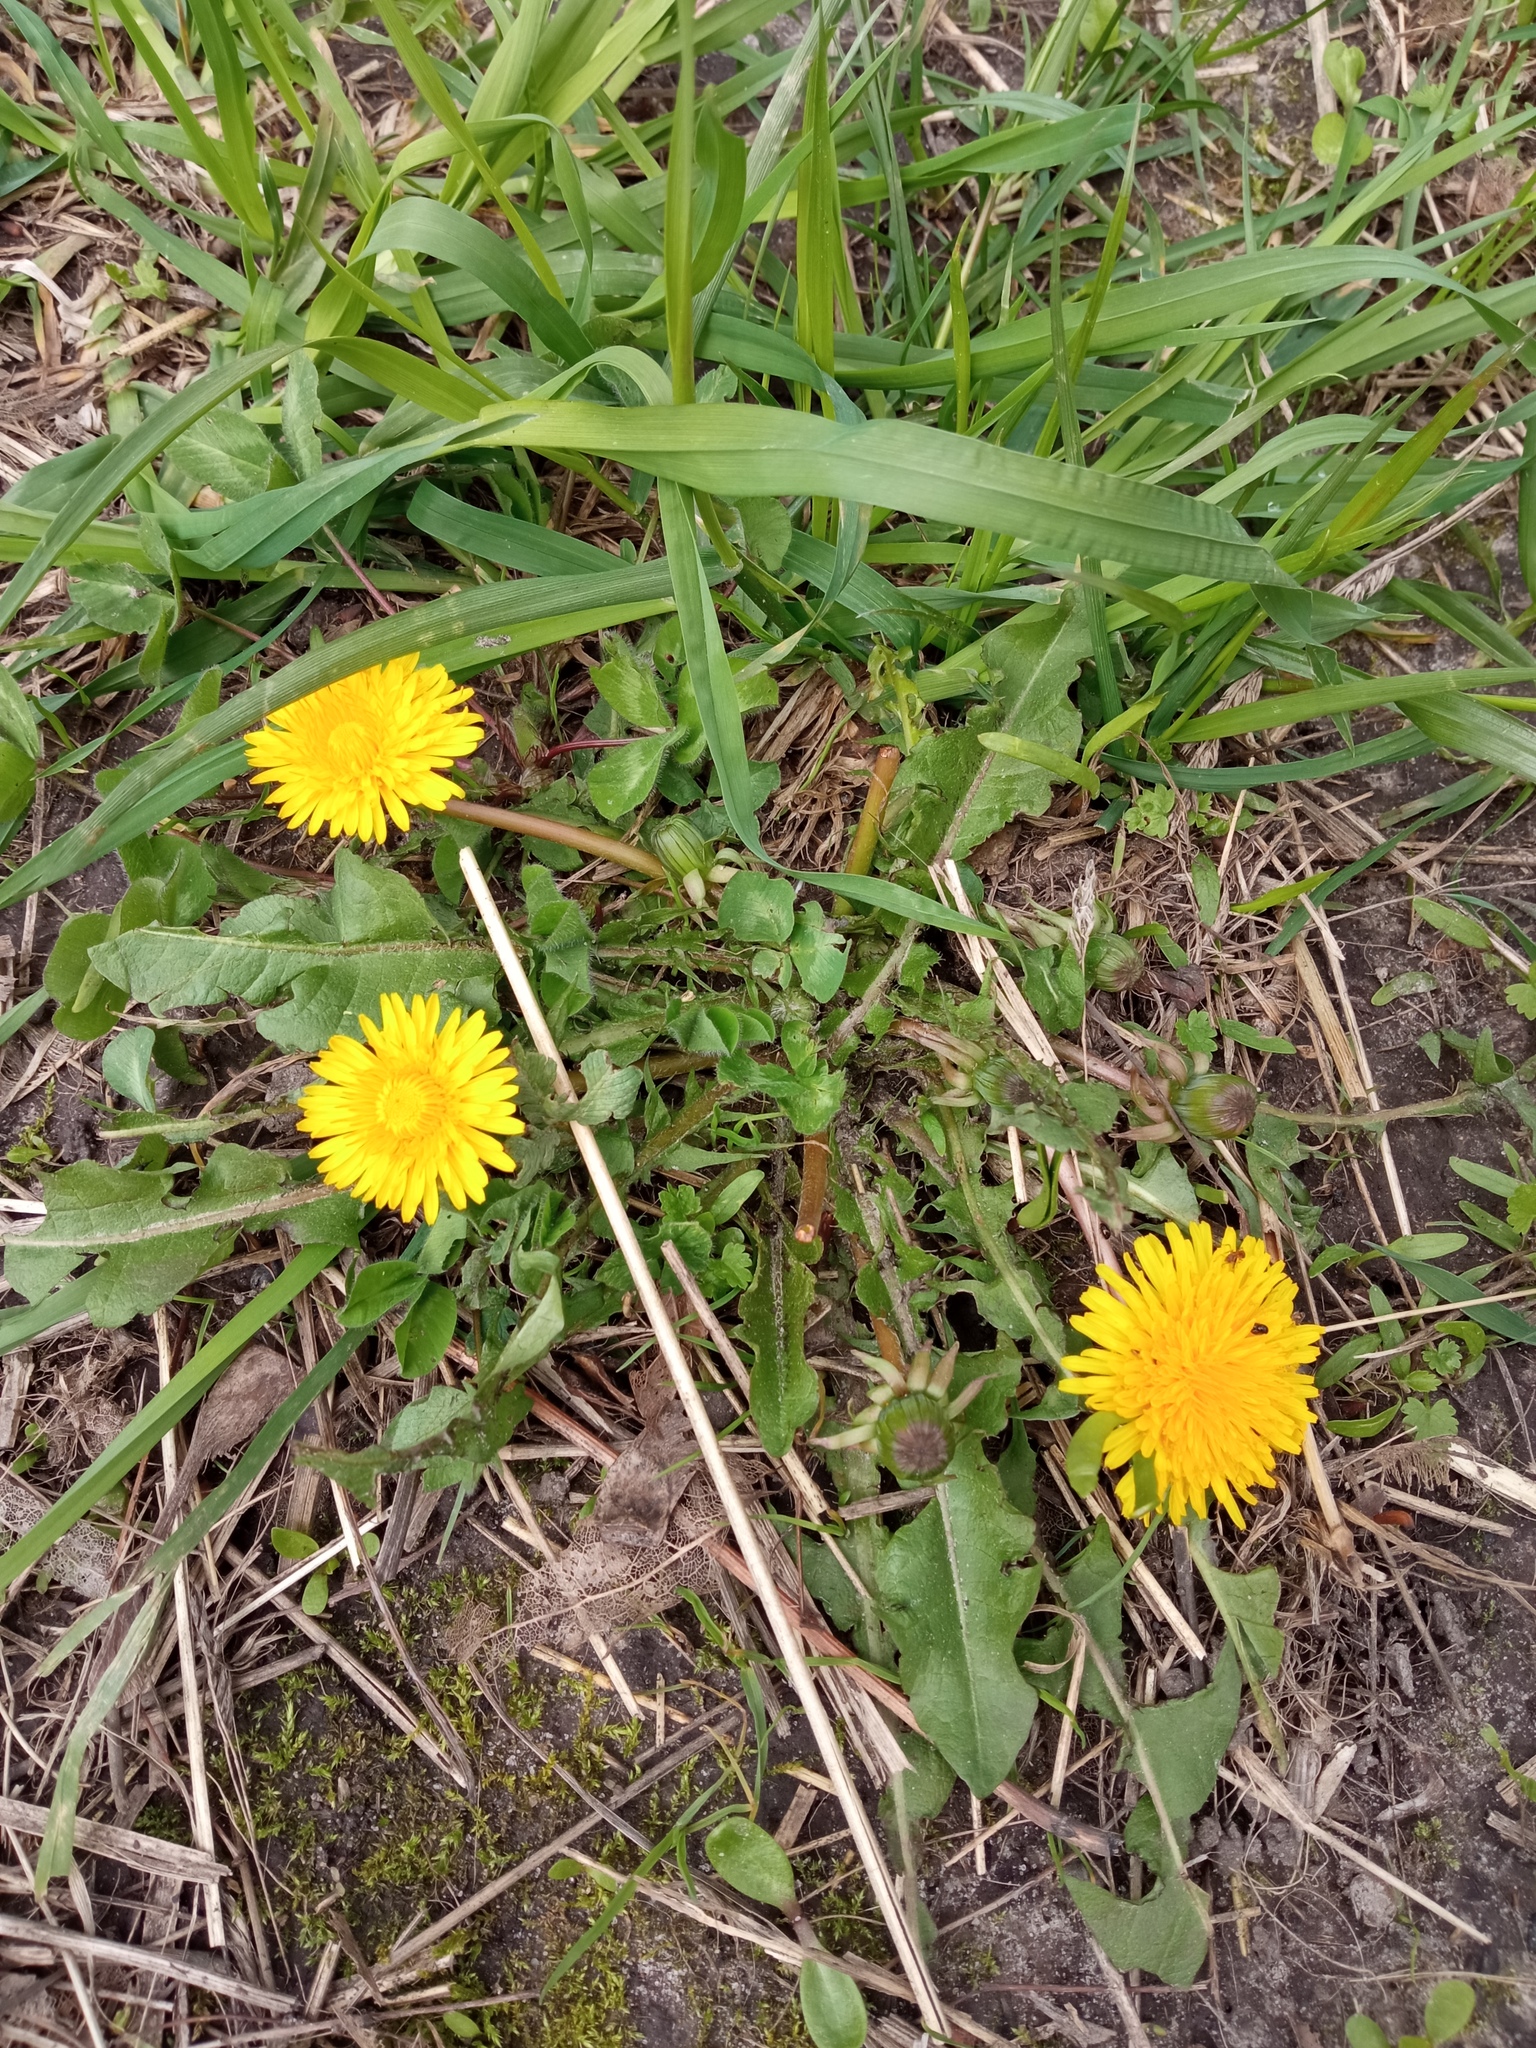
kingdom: Plantae
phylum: Tracheophyta
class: Magnoliopsida
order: Asterales
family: Asteraceae
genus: Taraxacum
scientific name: Taraxacum officinale
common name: Common dandelion
